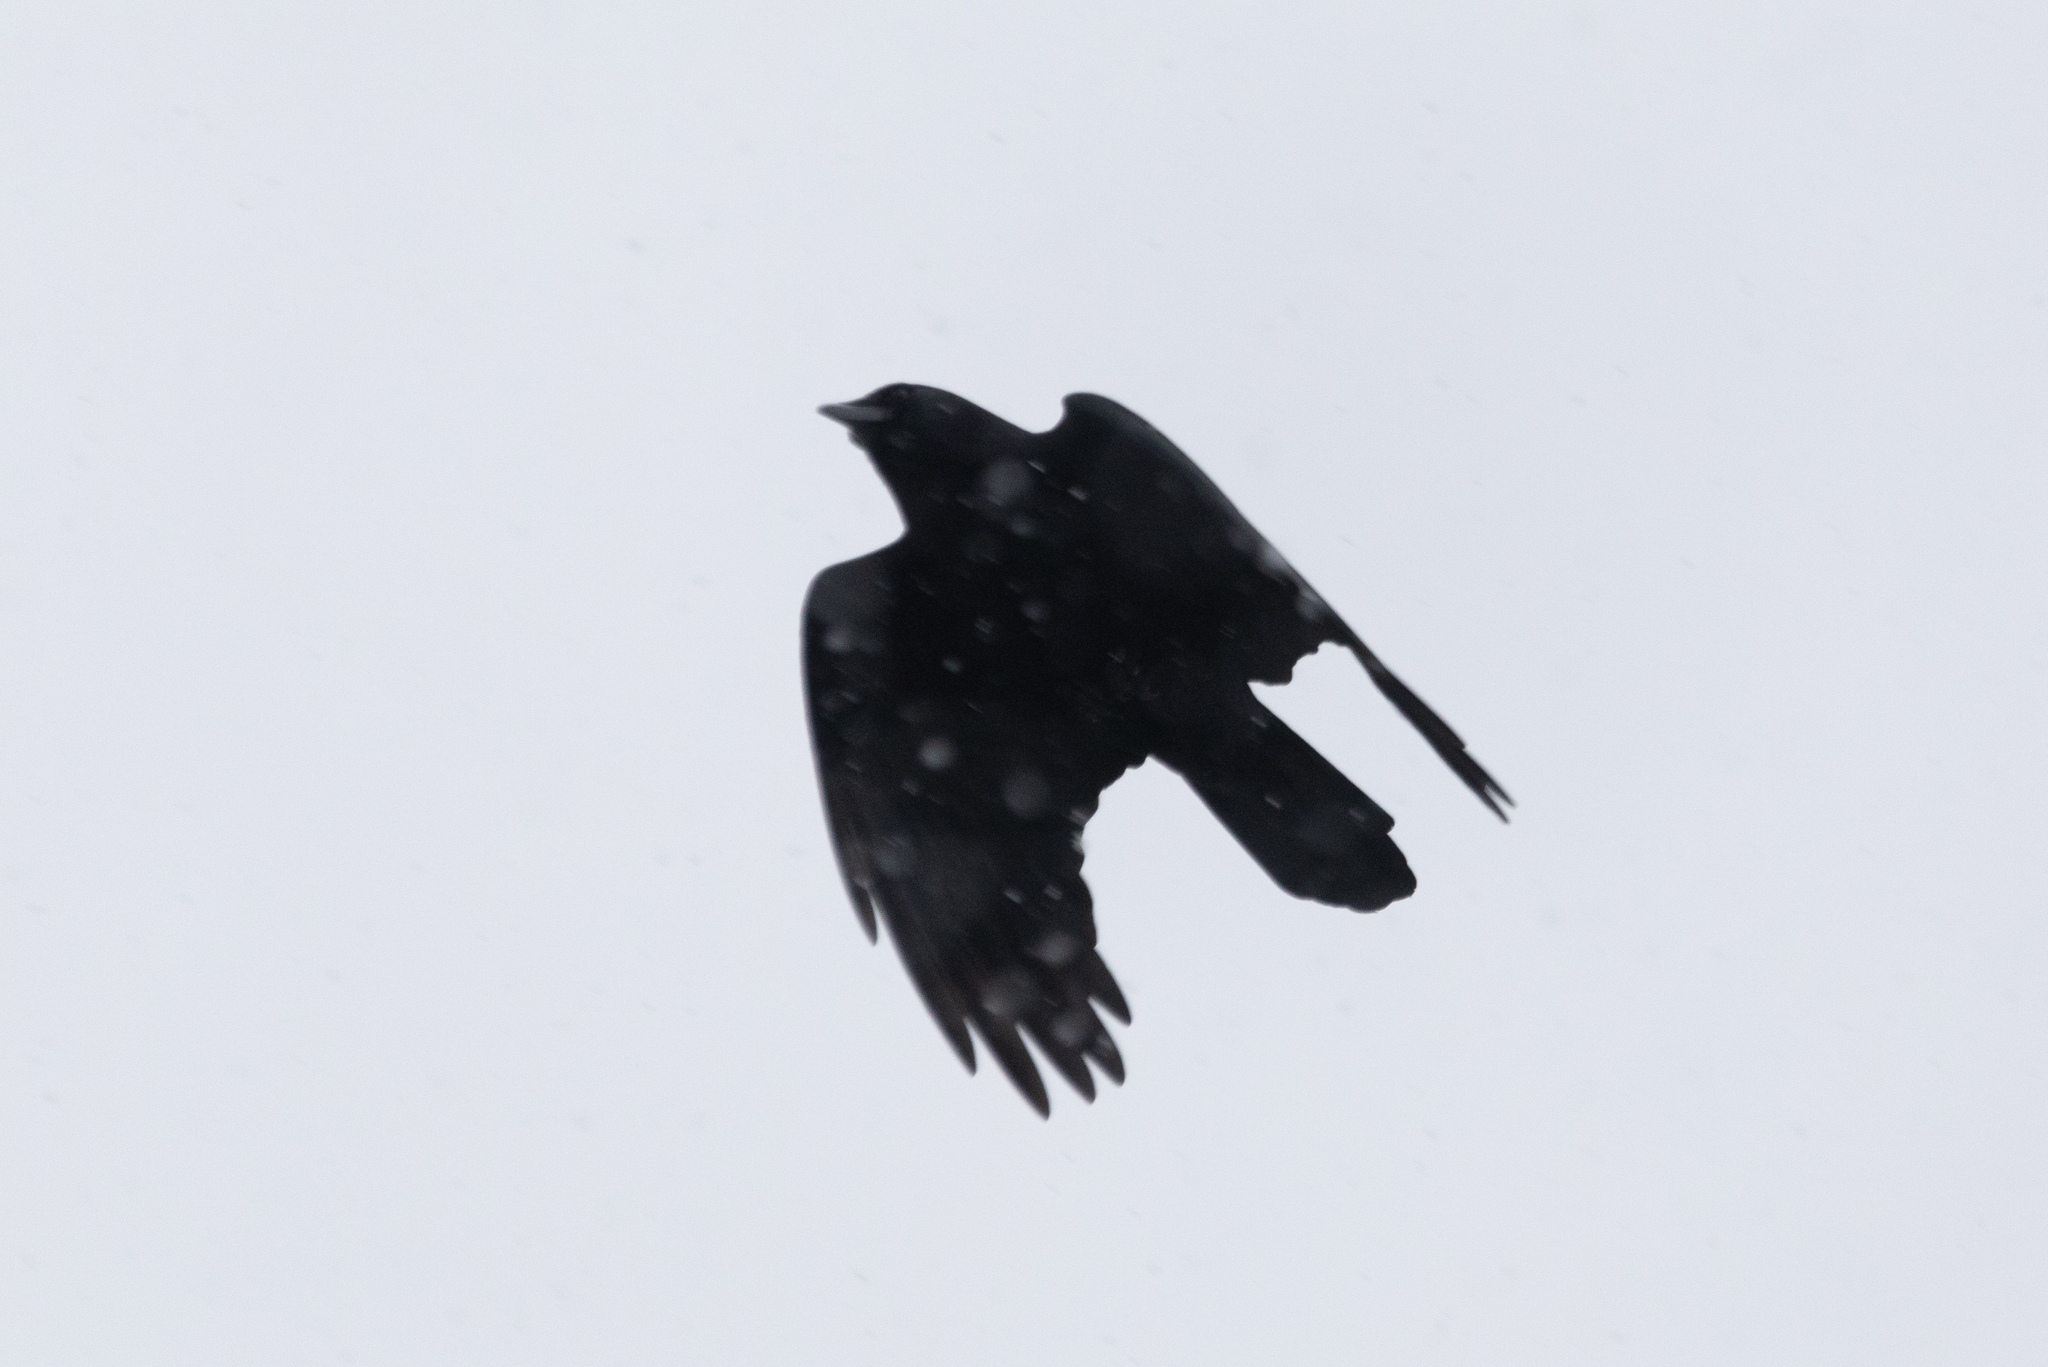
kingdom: Animalia
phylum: Chordata
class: Aves
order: Passeriformes
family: Corvidae
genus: Corvus
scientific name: Corvus brachyrhynchos
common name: American crow
